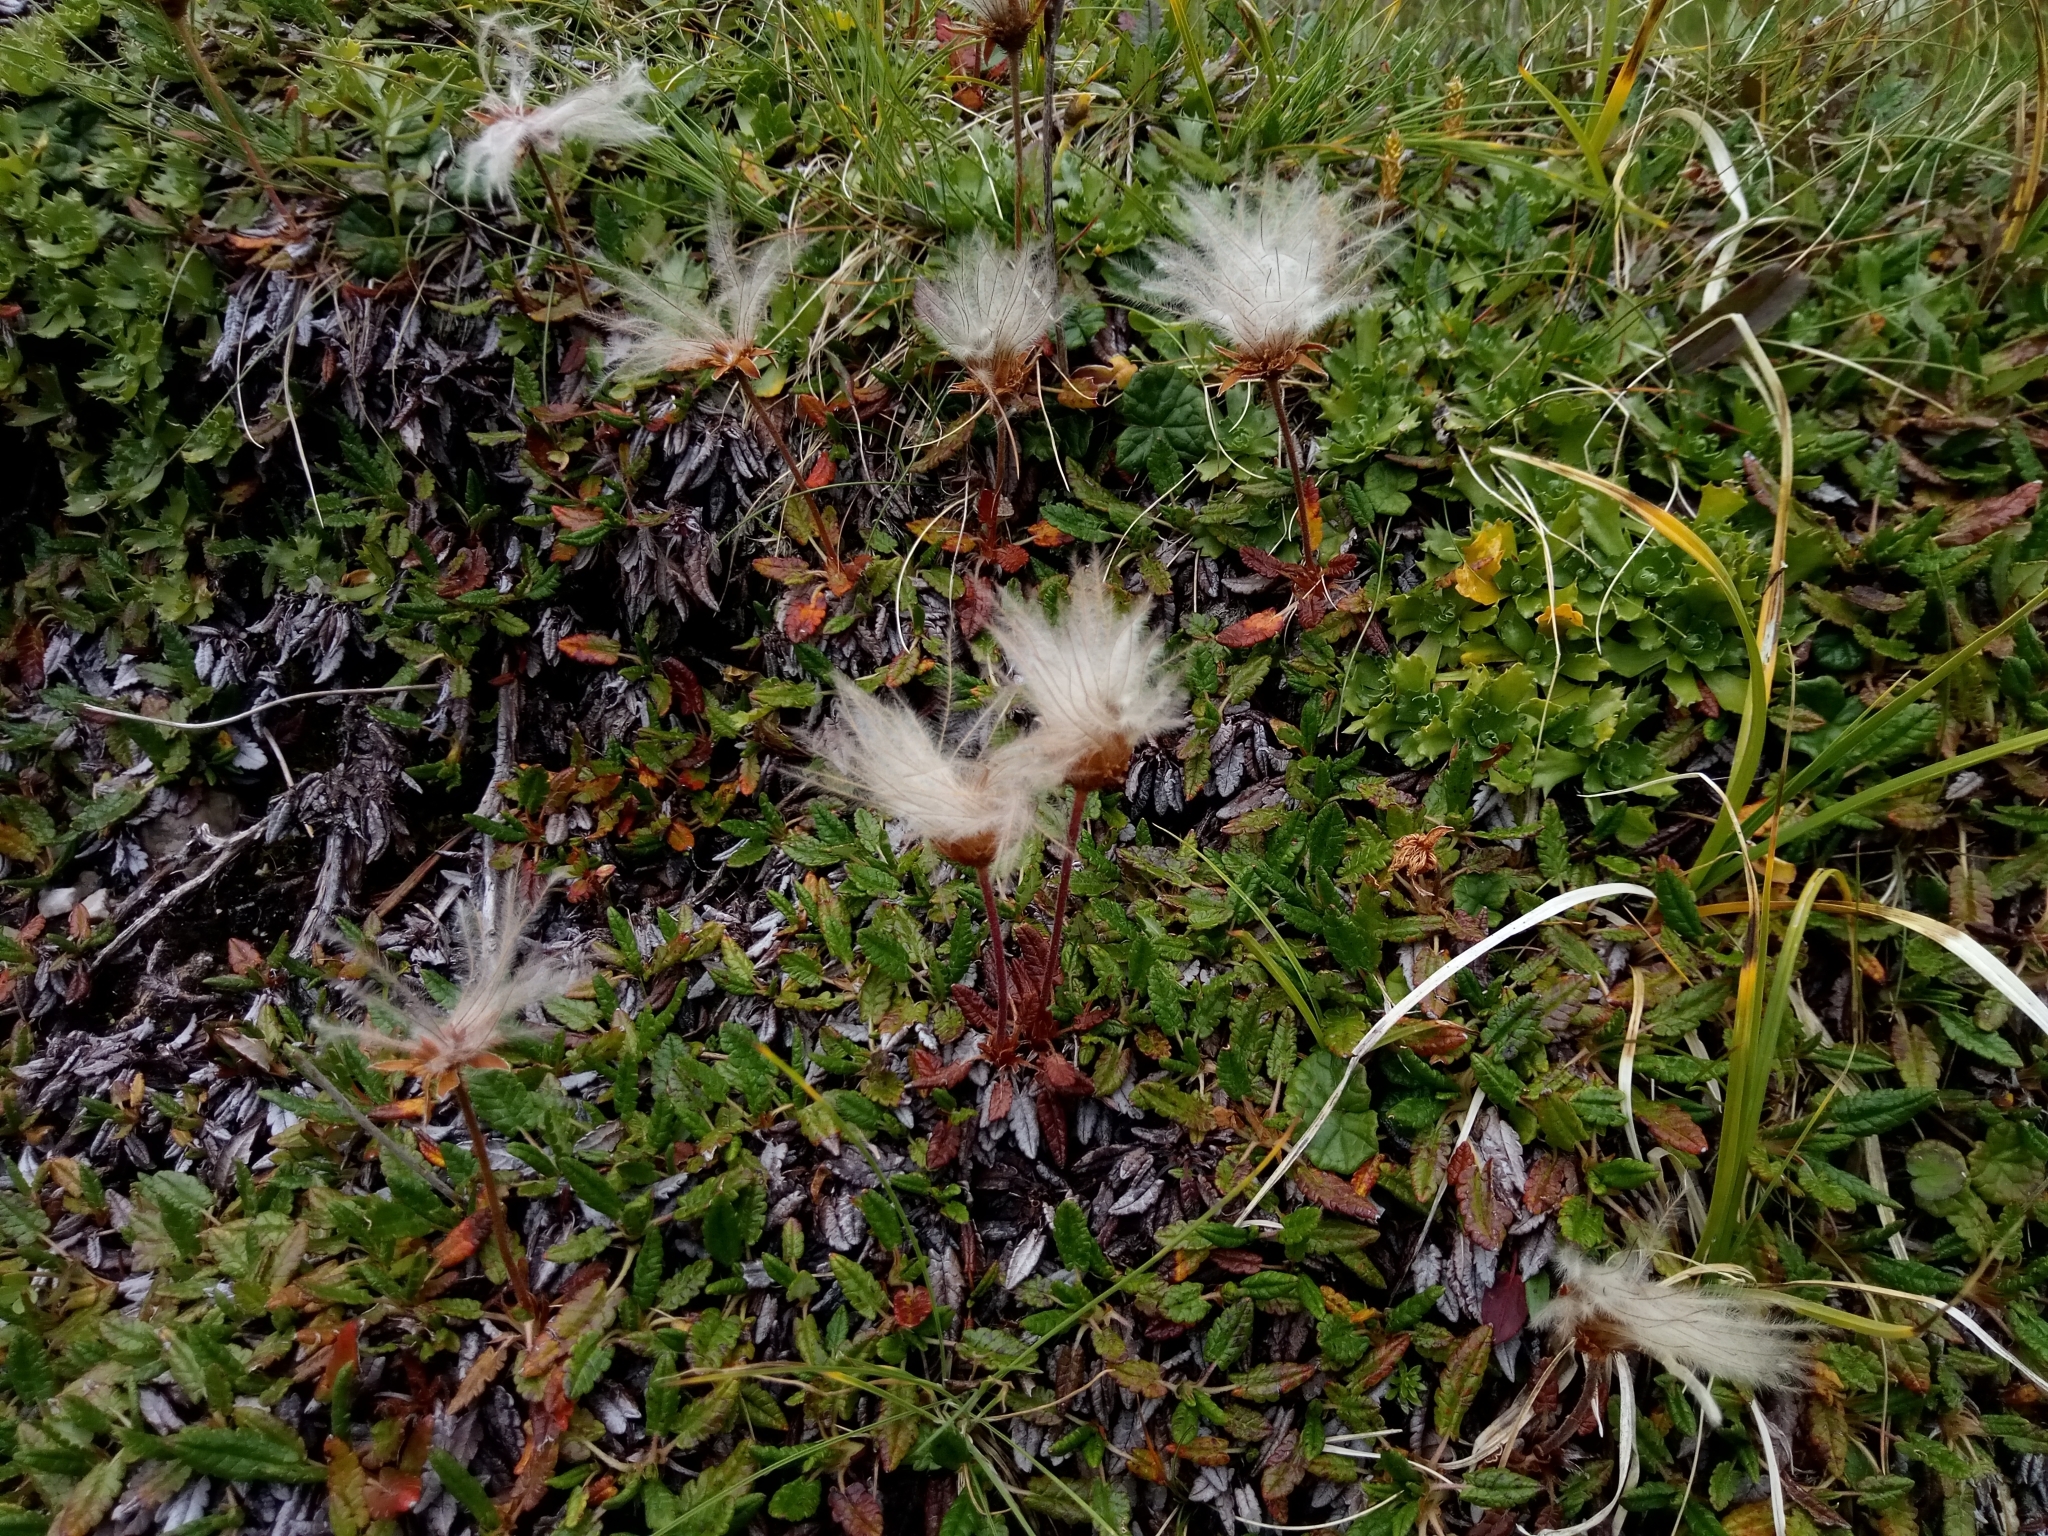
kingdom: Plantae
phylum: Tracheophyta
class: Magnoliopsida
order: Rosales
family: Rosaceae
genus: Dryas
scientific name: Dryas octopetala
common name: Eight-petal mountain-avens
